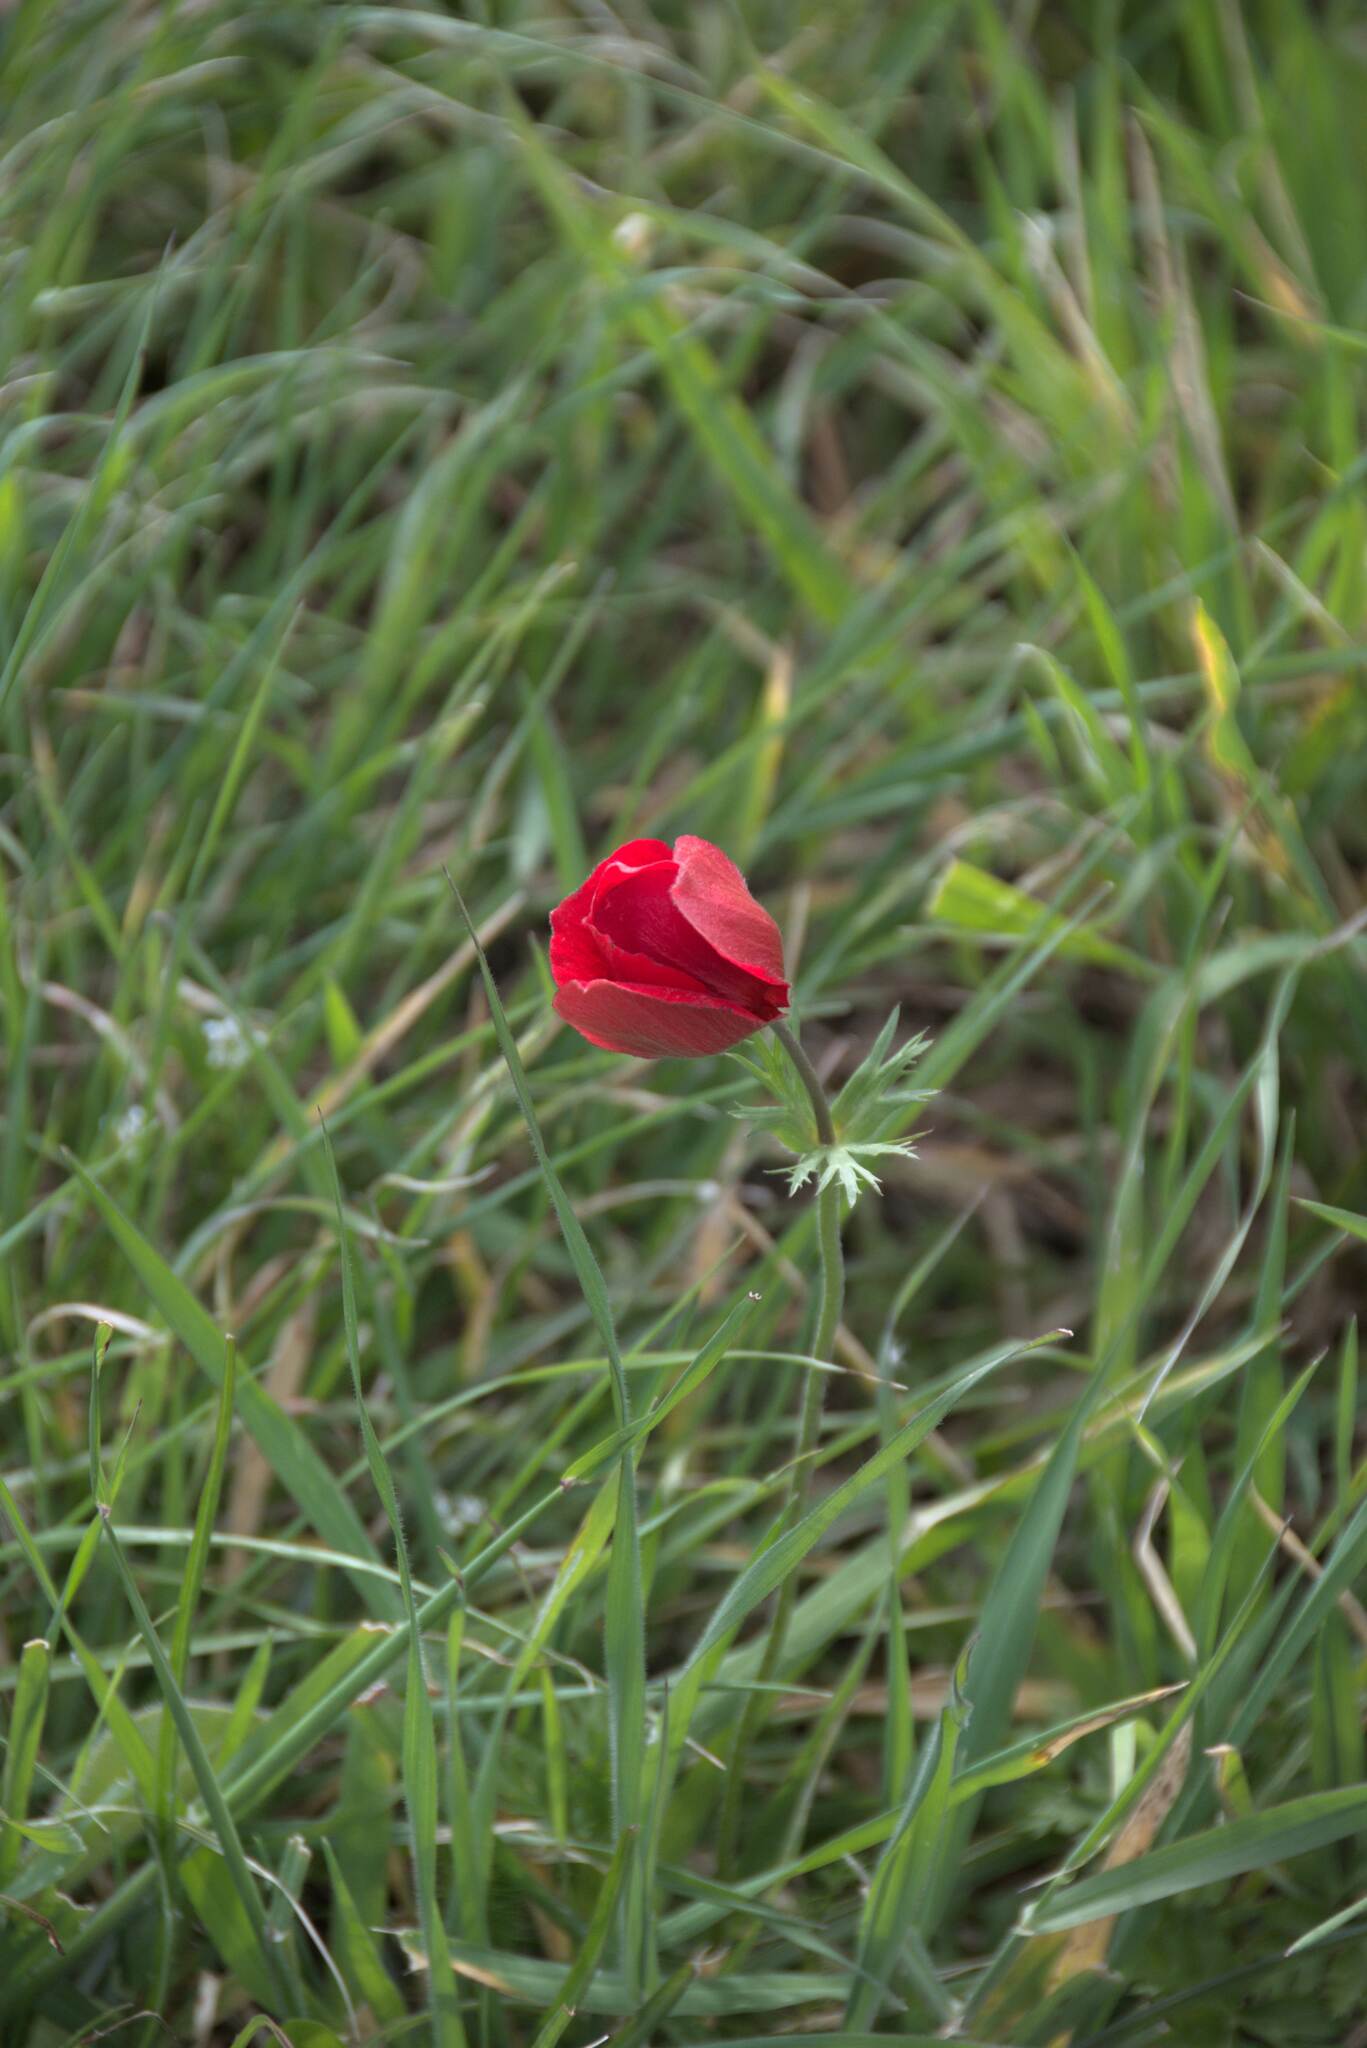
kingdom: Plantae
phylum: Tracheophyta
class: Magnoliopsida
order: Ranunculales
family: Ranunculaceae
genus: Anemone
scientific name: Anemone coronaria
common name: Poppy anemone
